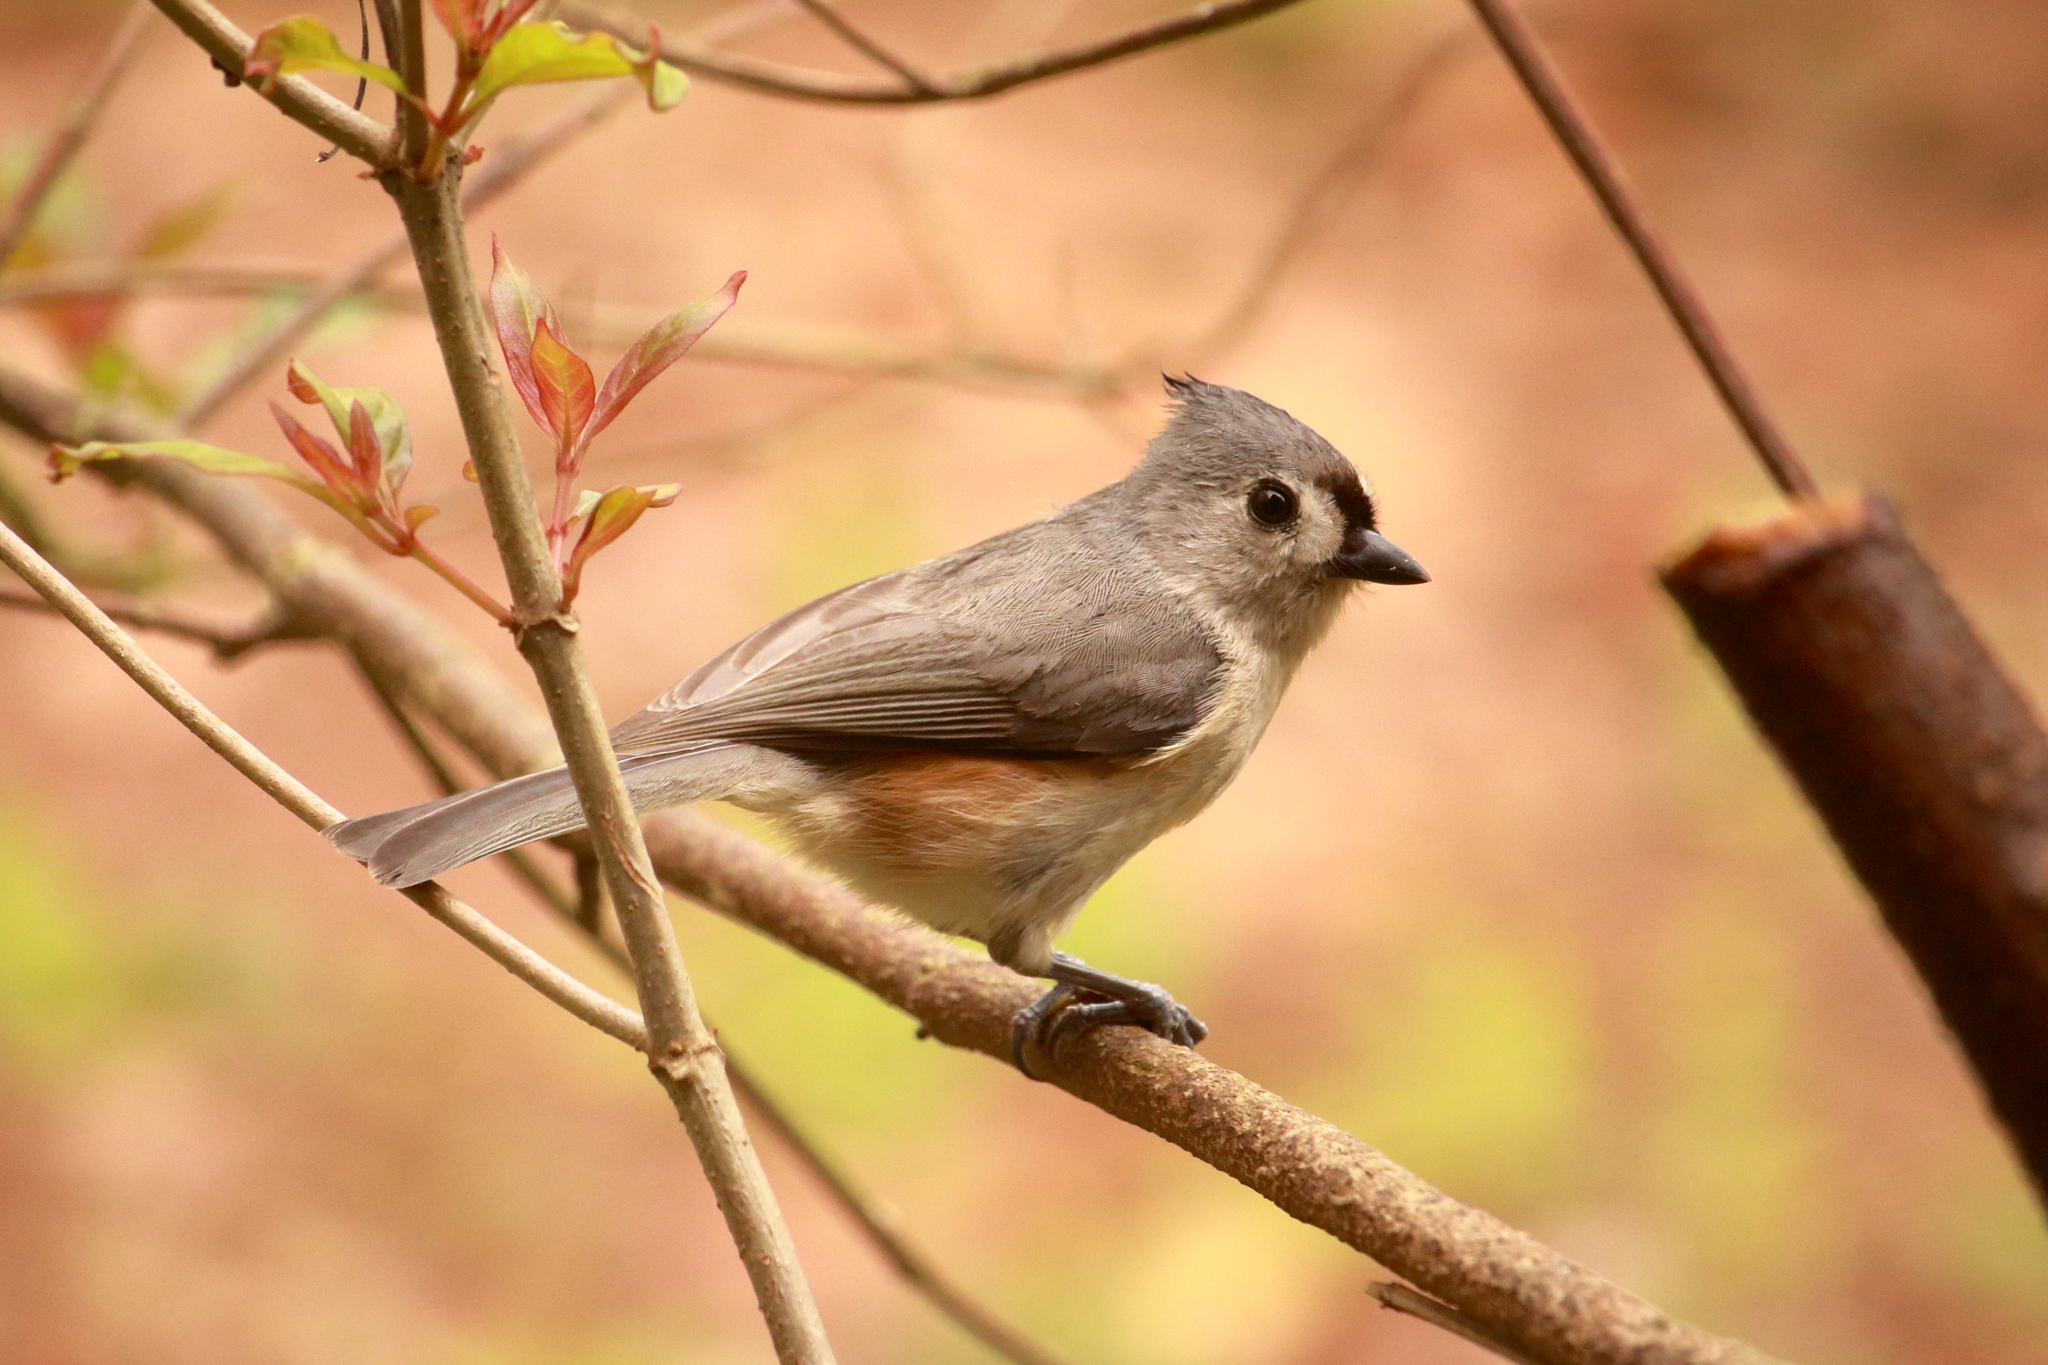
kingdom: Animalia
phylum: Chordata
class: Aves
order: Passeriformes
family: Paridae
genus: Baeolophus
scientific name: Baeolophus bicolor
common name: Tufted titmouse
